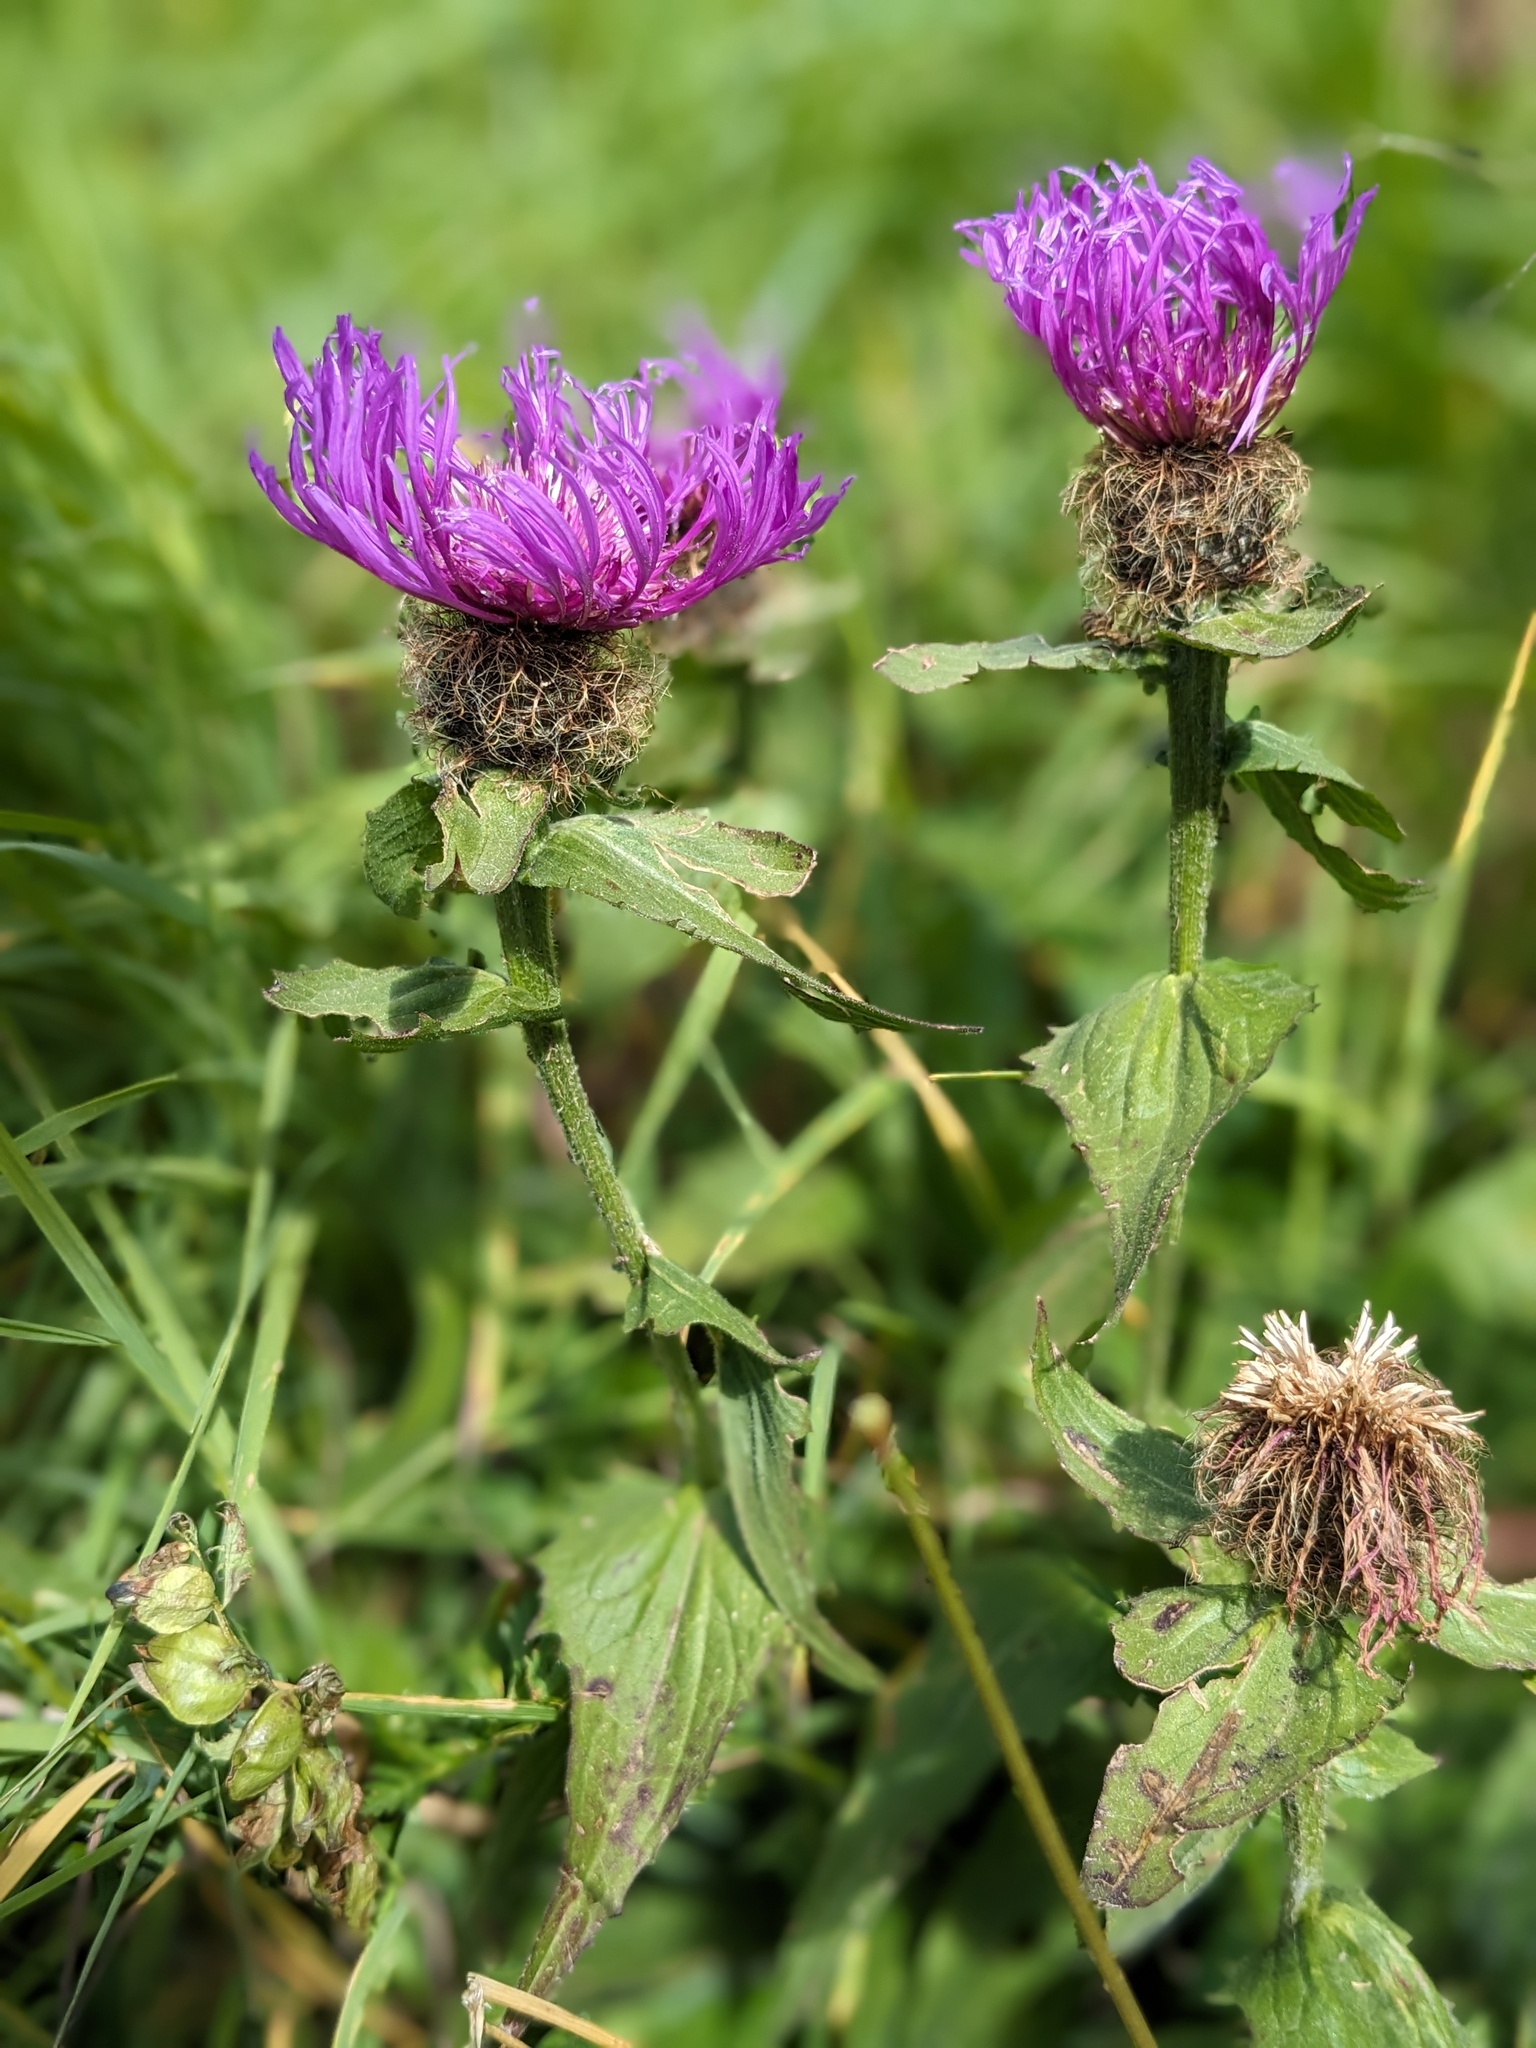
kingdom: Plantae
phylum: Tracheophyta
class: Magnoliopsida
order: Asterales
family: Asteraceae
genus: Centaurea
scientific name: Centaurea nervosa
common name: Singleflower knapweed
